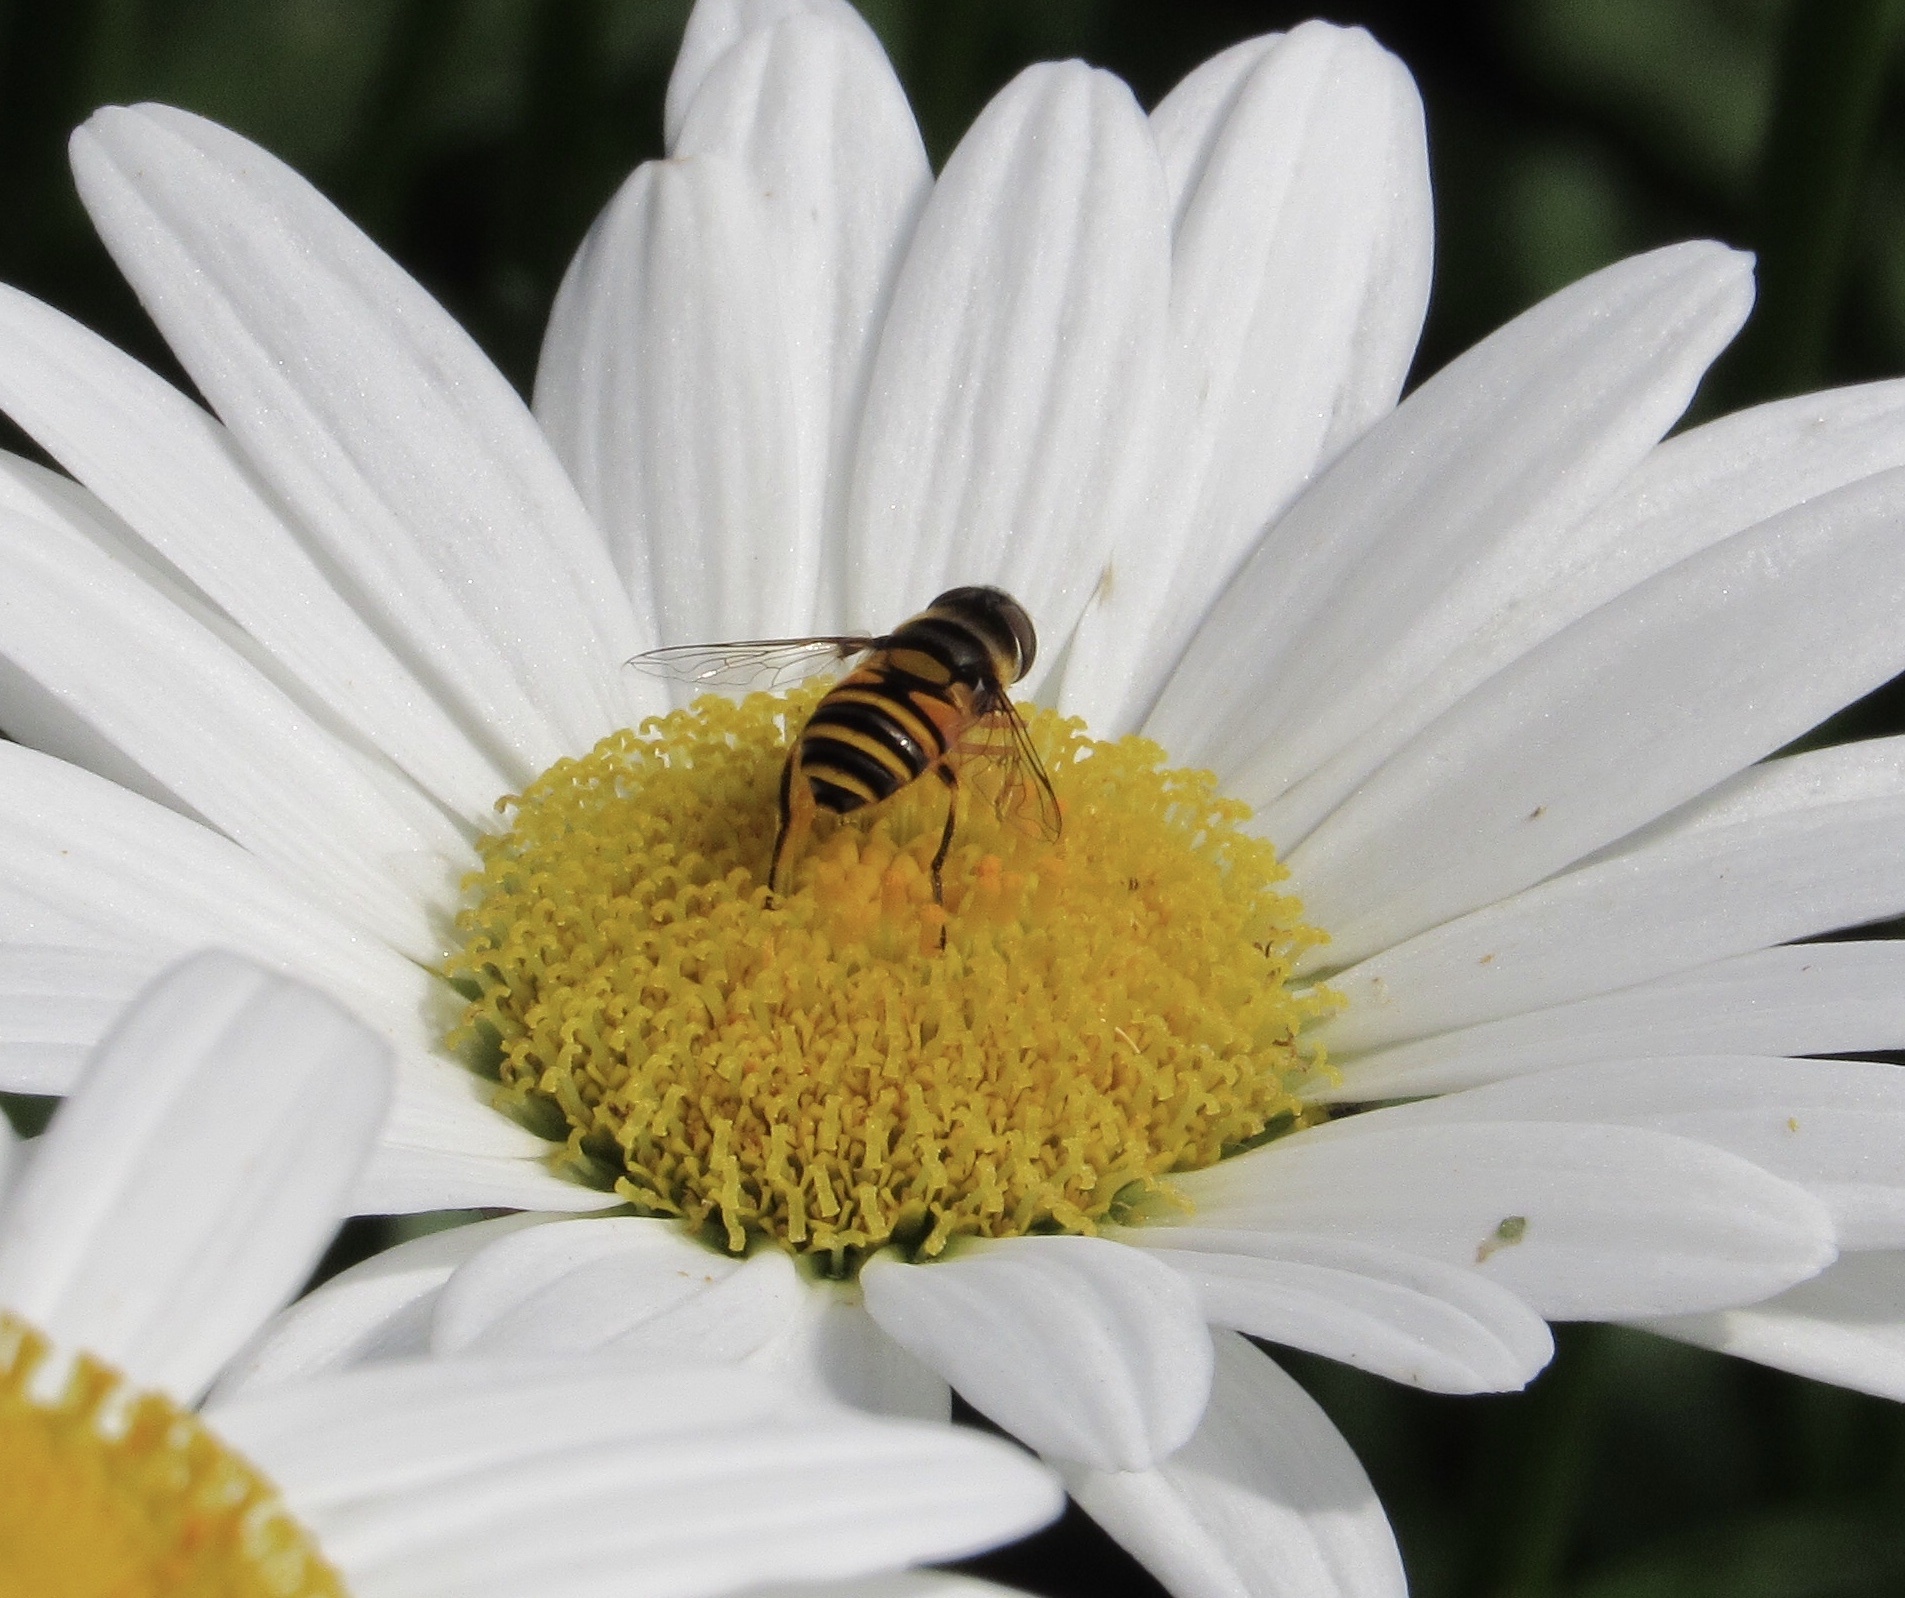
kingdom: Animalia
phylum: Arthropoda
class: Insecta
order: Diptera
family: Syrphidae
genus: Eristalis
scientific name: Eristalis transversa
